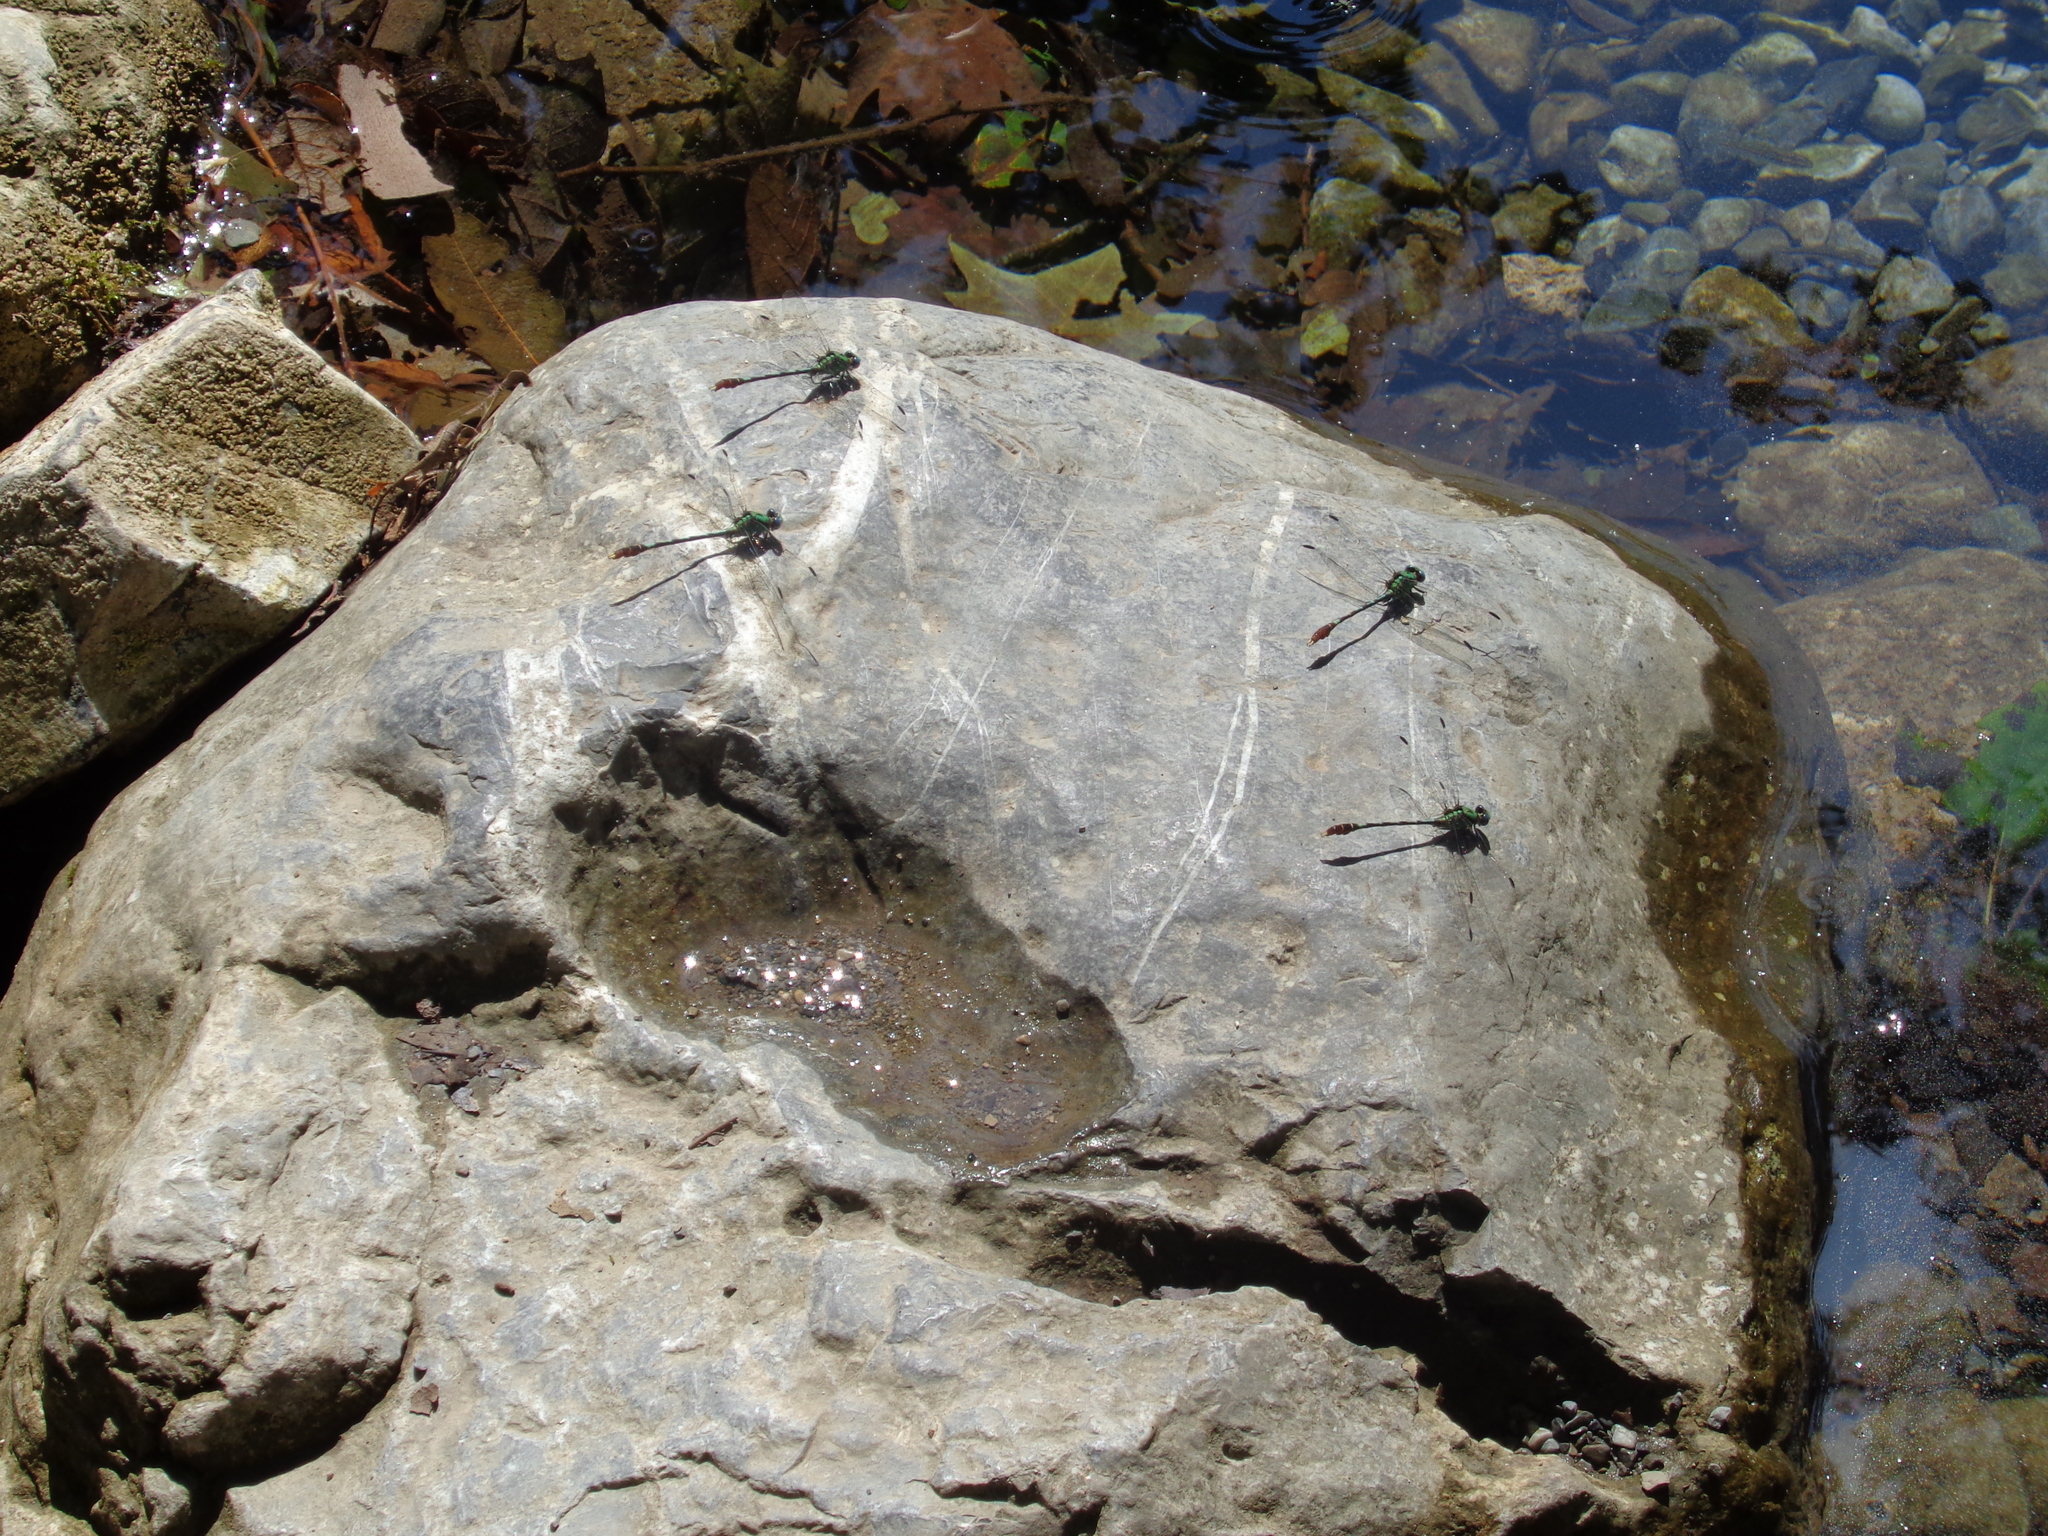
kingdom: Animalia
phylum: Arthropoda
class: Insecta
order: Odonata
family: Gomphidae
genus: Erpetogomphus
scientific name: Erpetogomphus elaps
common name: Straight-tipped ringtail
